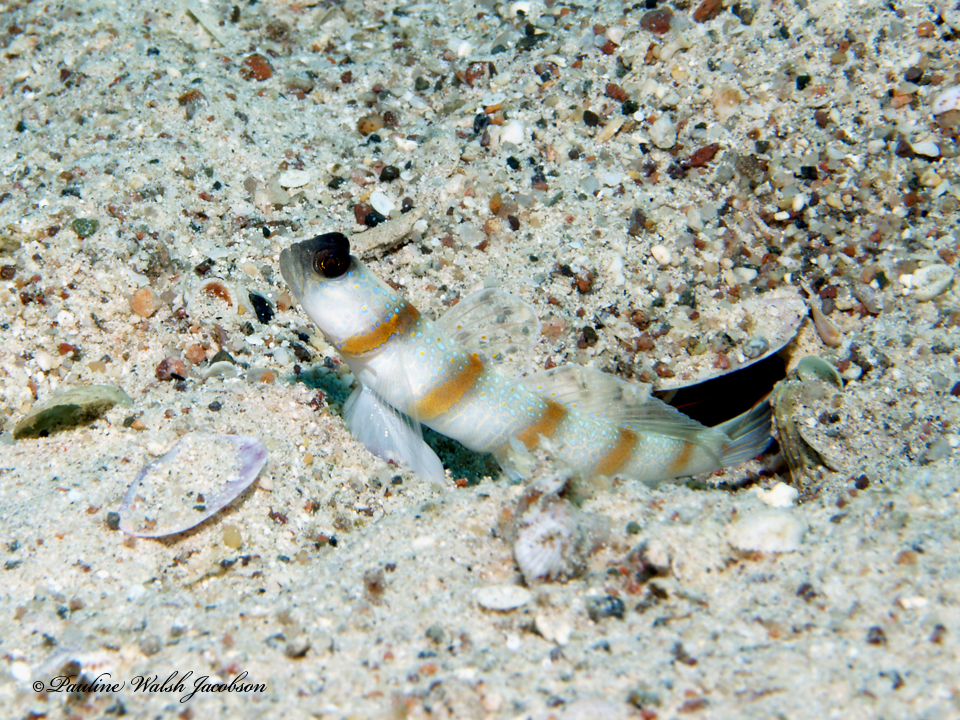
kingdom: Animalia
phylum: Chordata
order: Perciformes
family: Gobiidae
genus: Amblyeleotris
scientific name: Amblyeleotris sungami
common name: Magnus' prawn-goby
